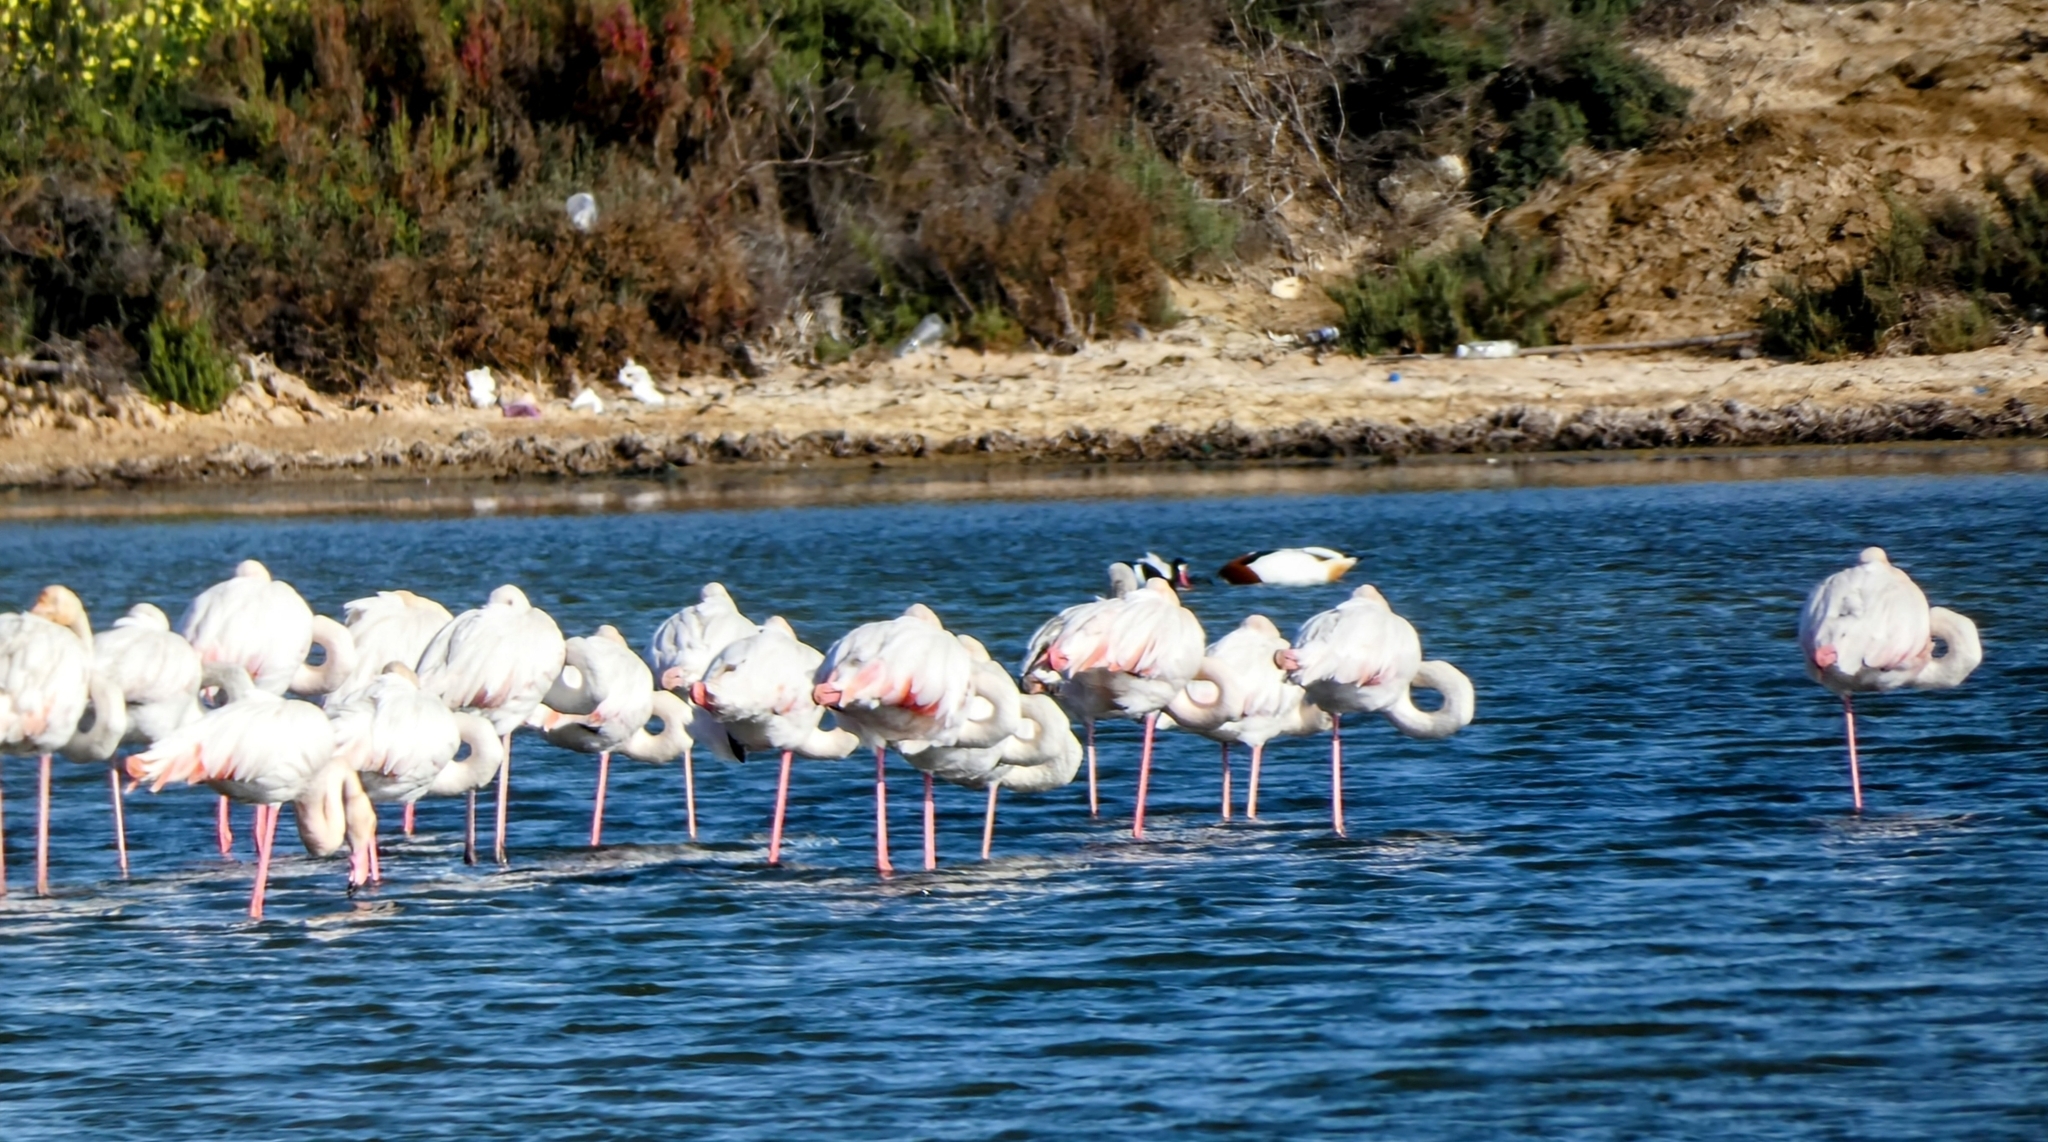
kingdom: Animalia
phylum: Chordata
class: Aves
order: Phoenicopteriformes
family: Phoenicopteridae
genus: Phoenicopterus
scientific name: Phoenicopterus roseus
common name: Greater flamingo
